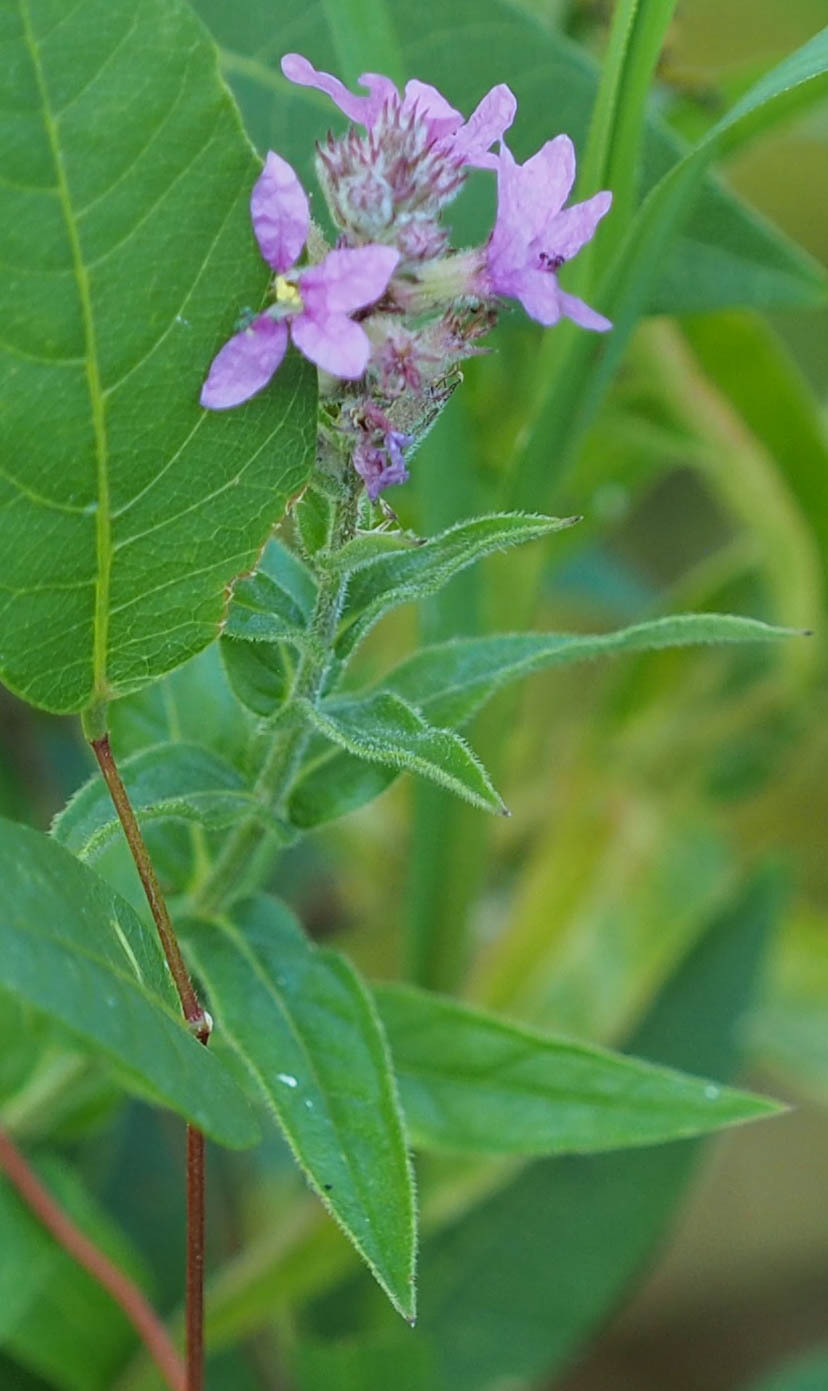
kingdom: Plantae
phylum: Tracheophyta
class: Magnoliopsida
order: Myrtales
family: Lythraceae
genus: Lythrum
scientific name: Lythrum salicaria
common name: Purple loosestrife
